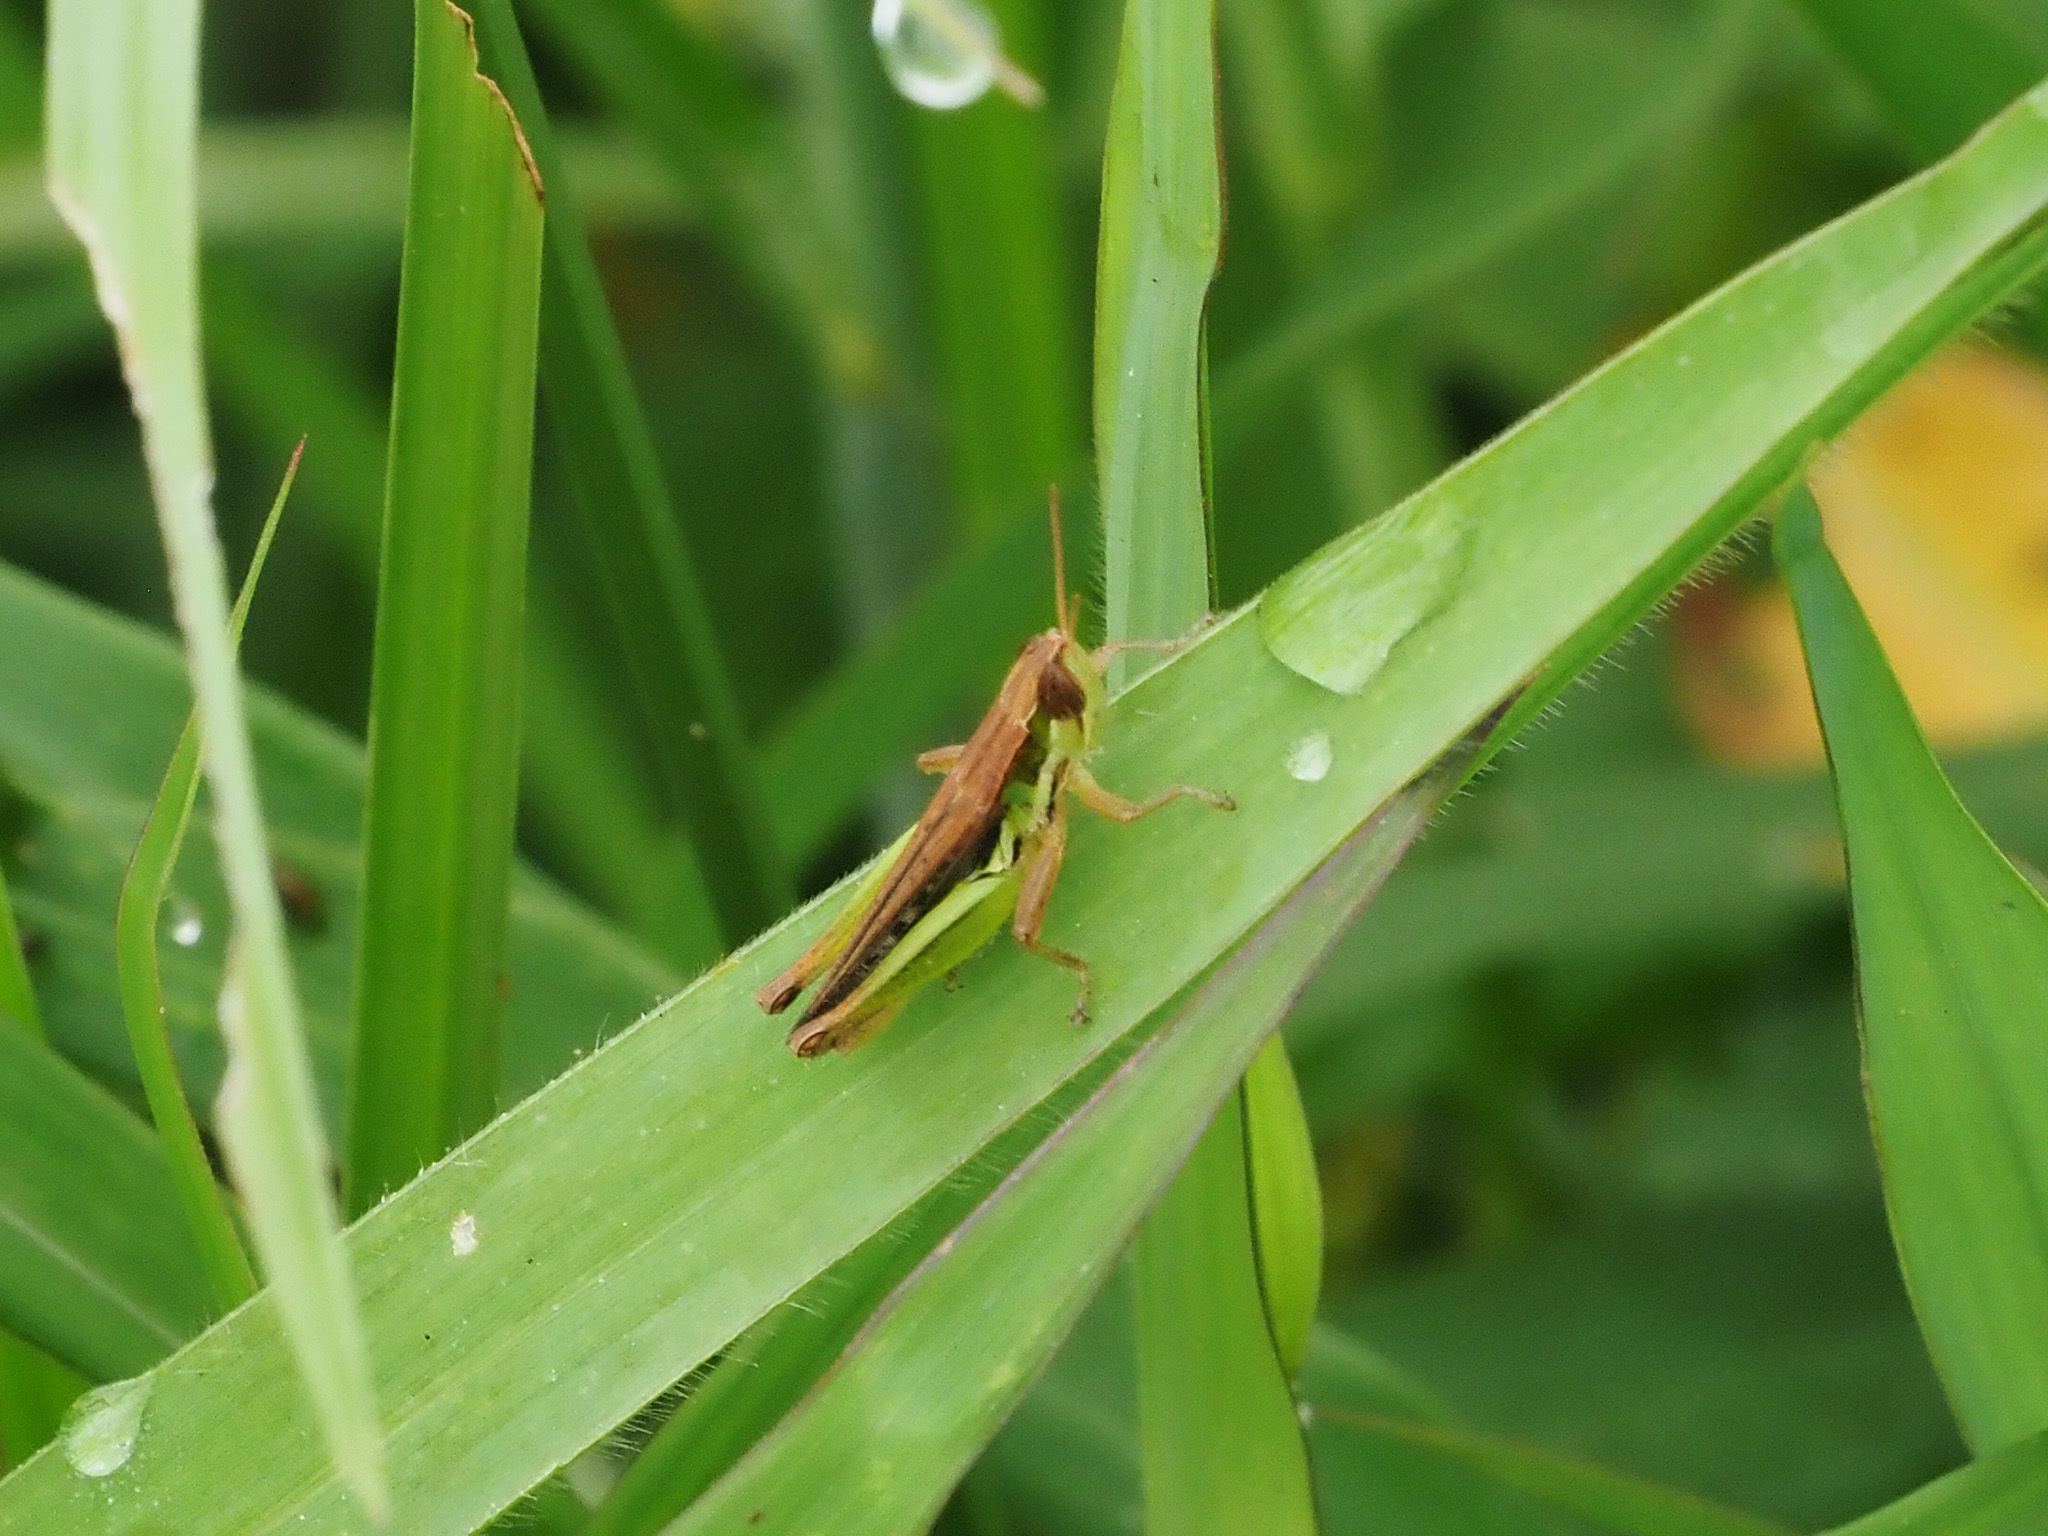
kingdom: Animalia
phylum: Arthropoda
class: Insecta
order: Orthoptera
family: Acrididae
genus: Spathosternum
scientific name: Spathosternum prasiniferum
